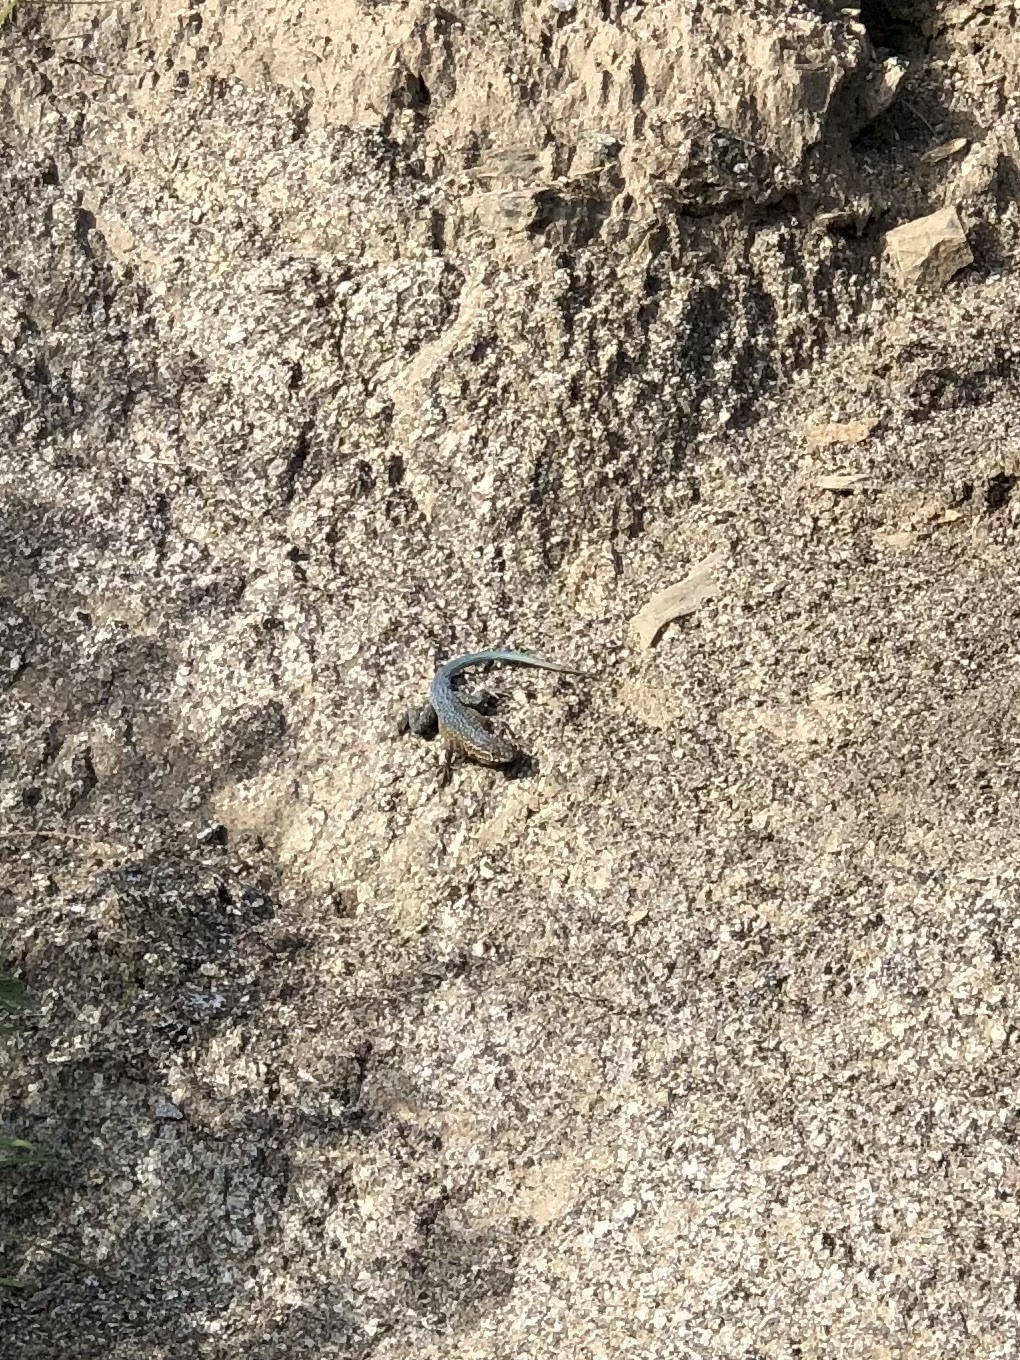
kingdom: Animalia
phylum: Chordata
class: Squamata
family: Phrynosomatidae
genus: Uta
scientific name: Uta stansburiana
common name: Side-blotched lizard
